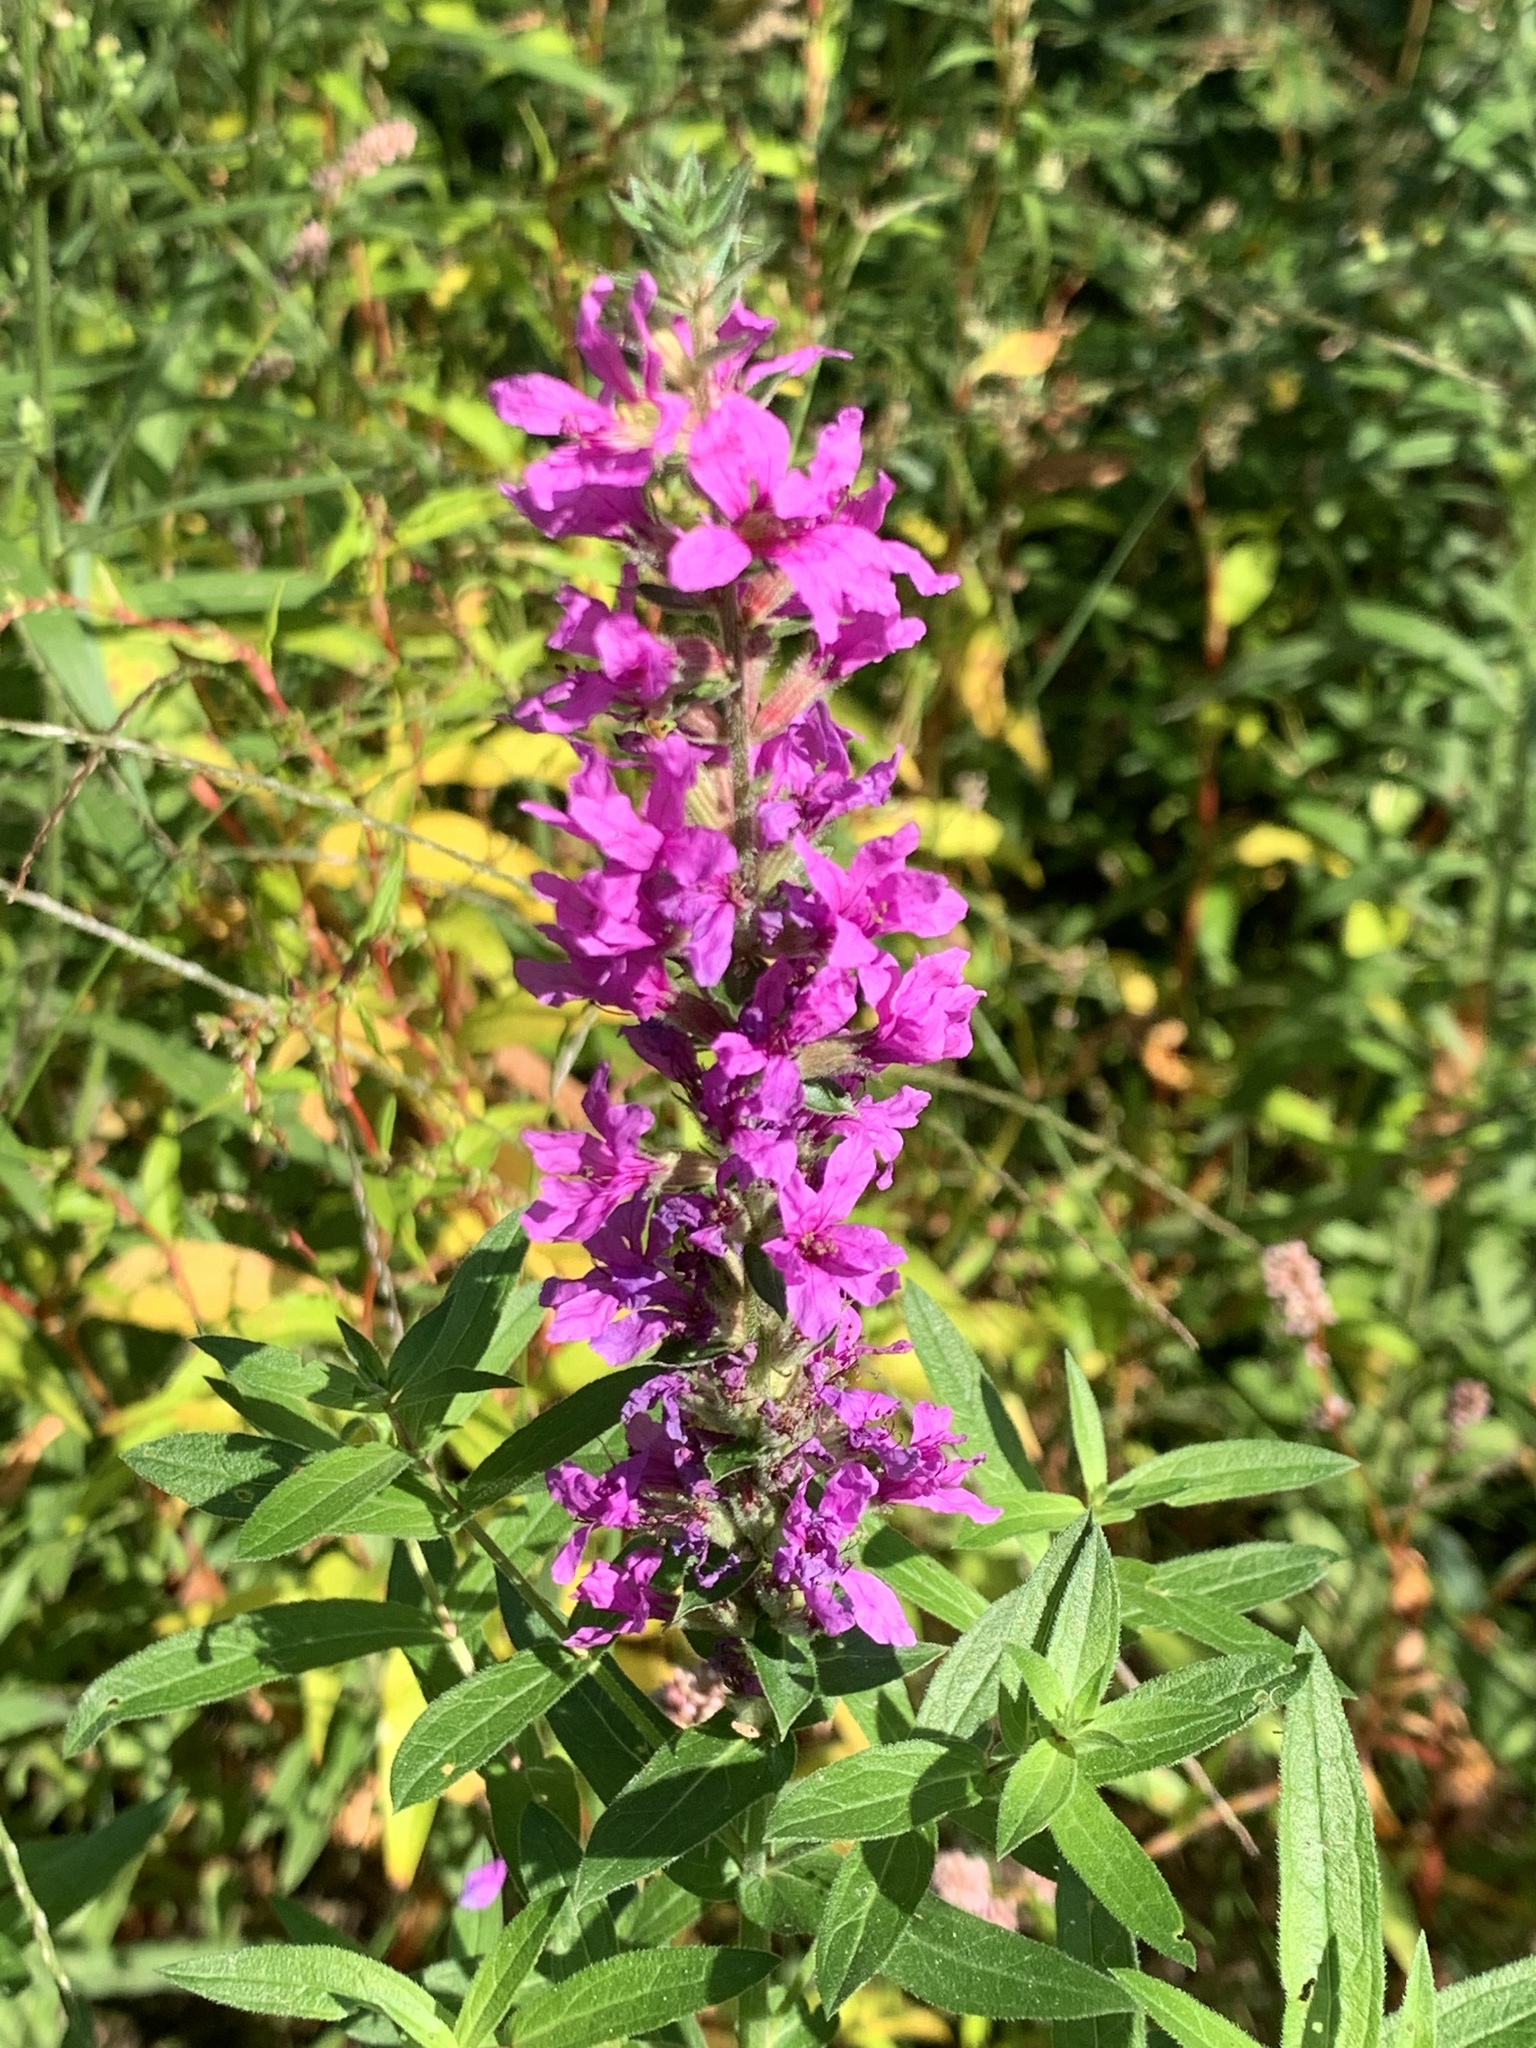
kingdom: Plantae
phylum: Tracheophyta
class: Magnoliopsida
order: Myrtales
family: Lythraceae
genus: Lythrum
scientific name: Lythrum salicaria
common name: Purple loosestrife
